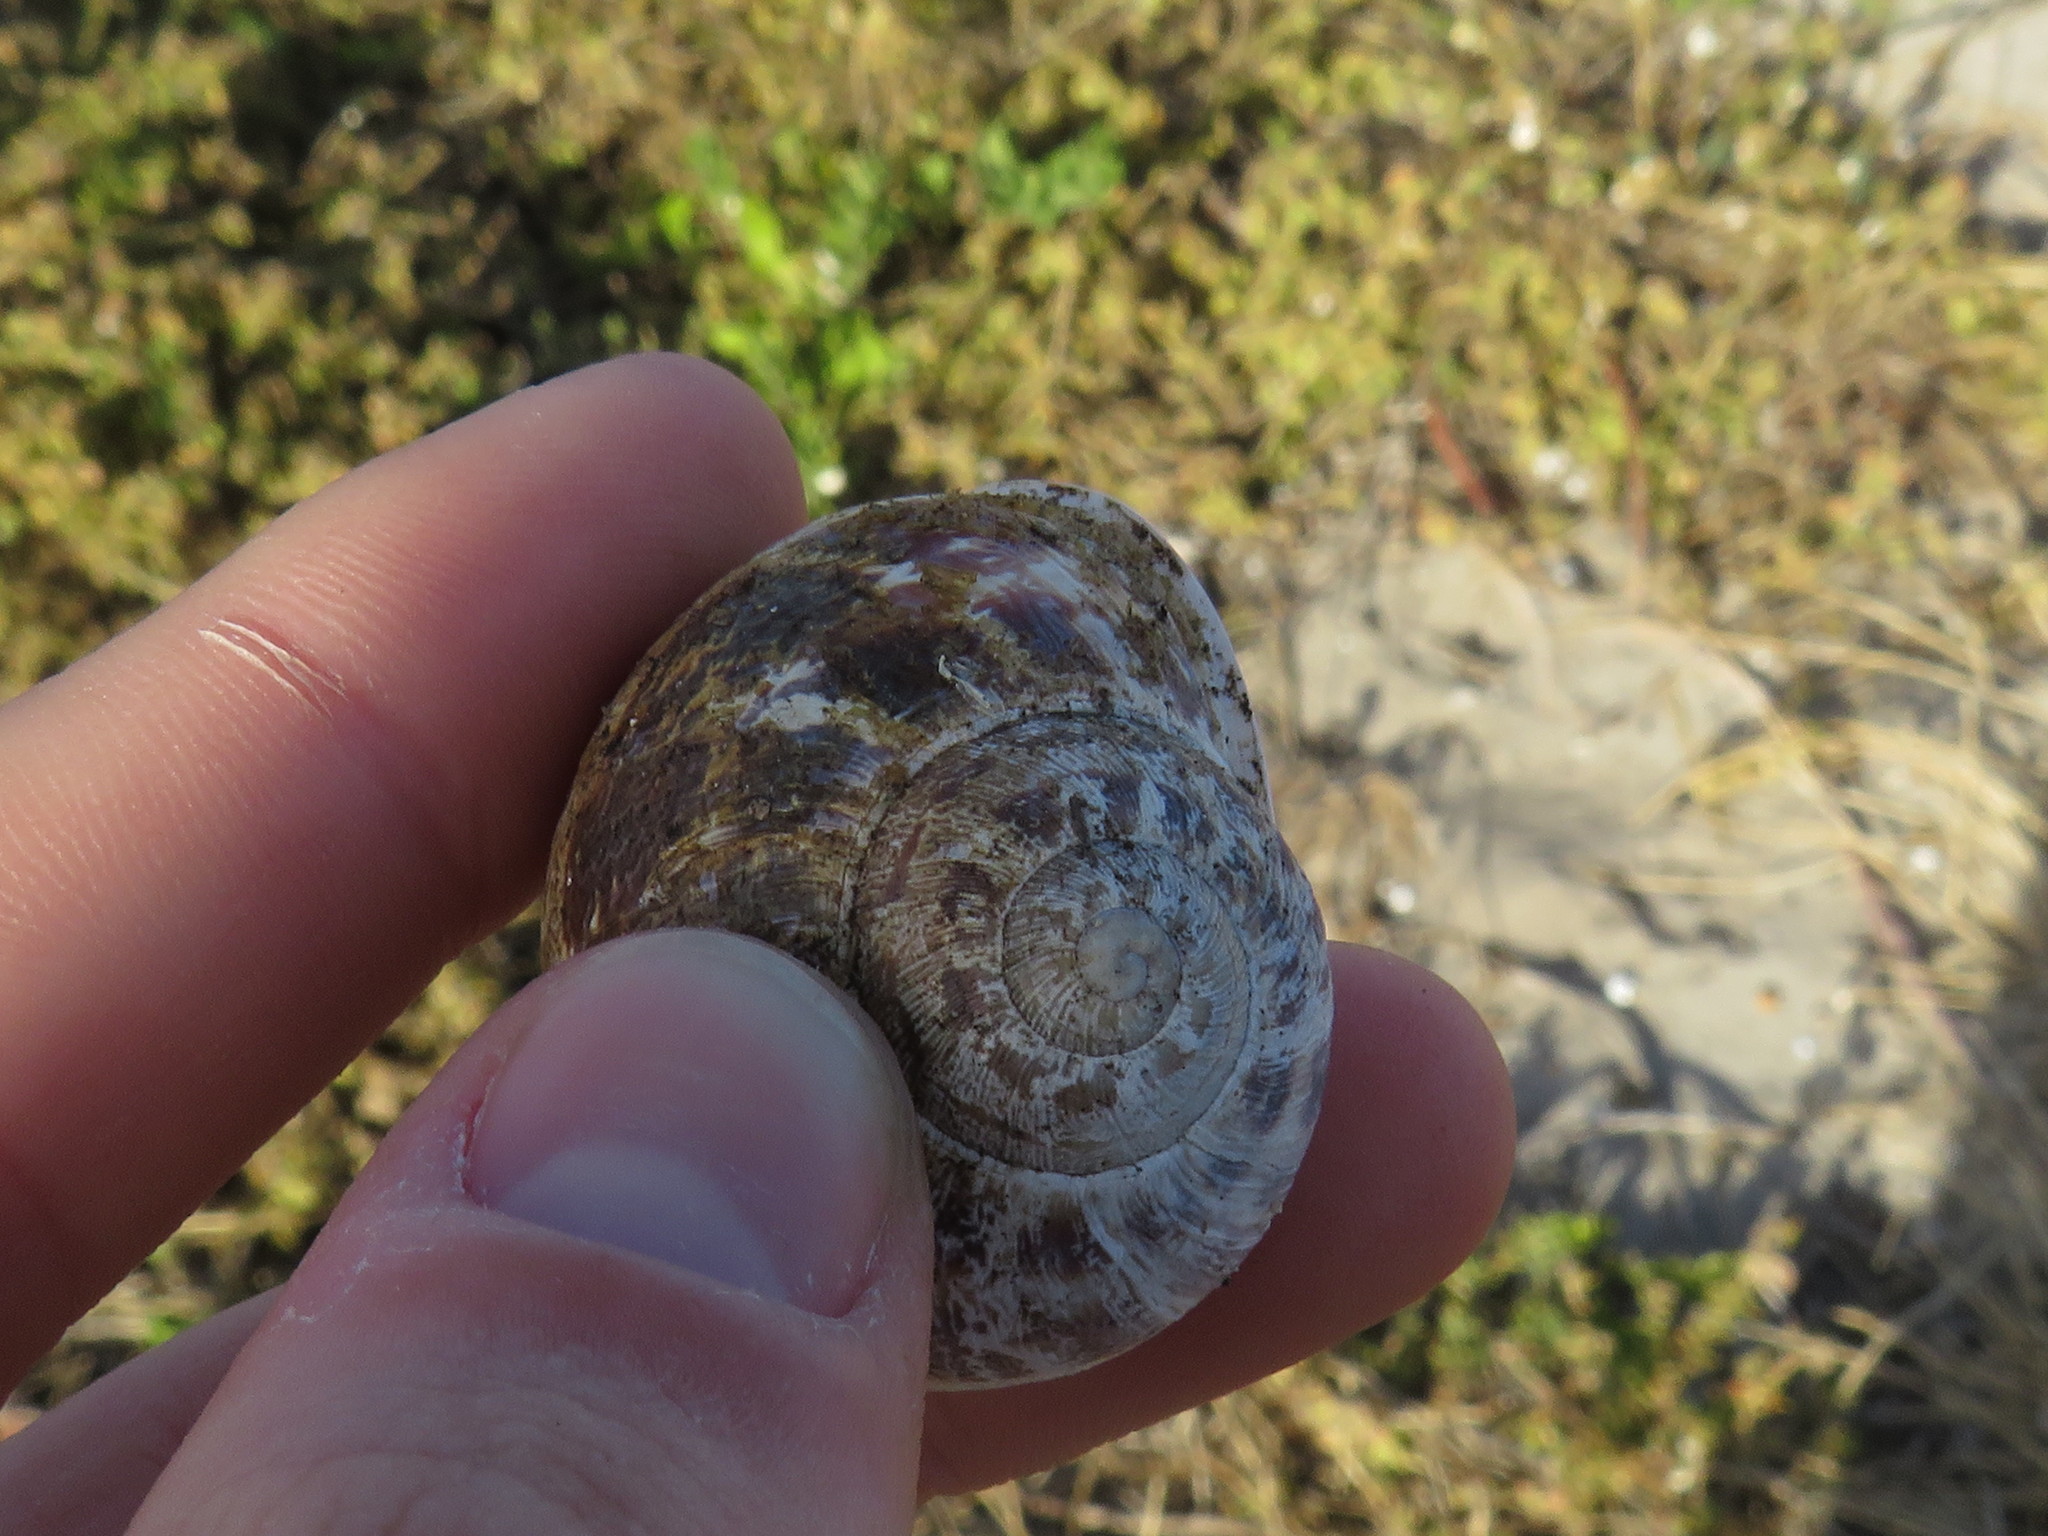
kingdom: Animalia
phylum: Mollusca
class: Gastropoda
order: Stylommatophora
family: Helicidae
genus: Cornu
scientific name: Cornu aspersum
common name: Brown garden snail
